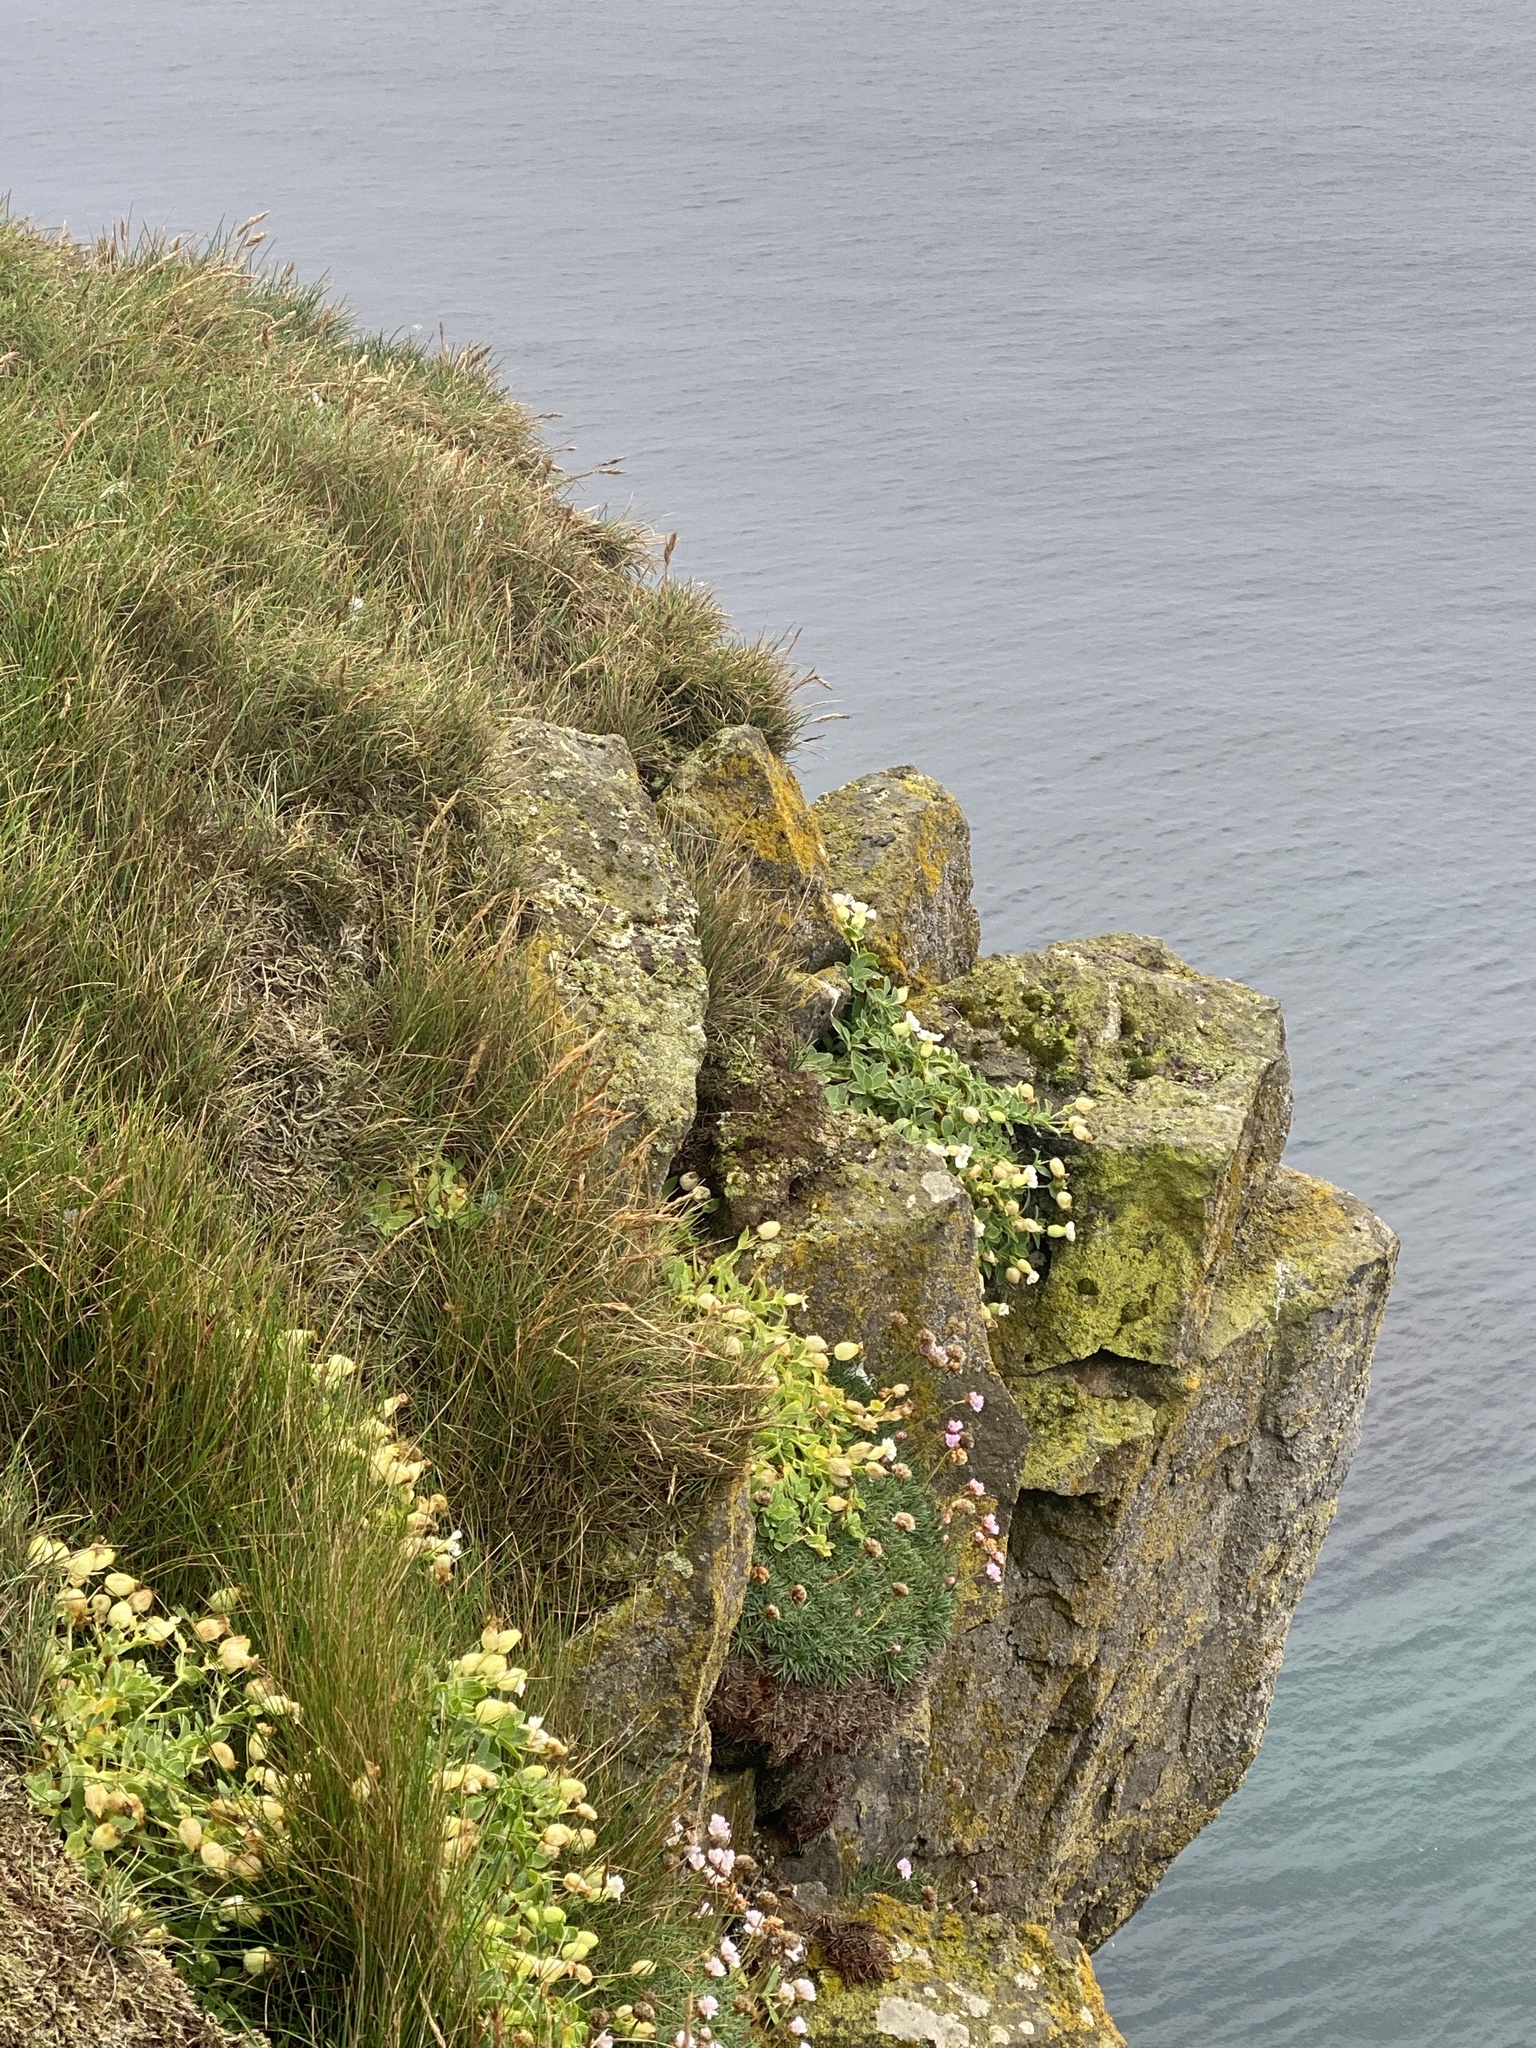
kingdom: Plantae
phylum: Tracheophyta
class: Magnoliopsida
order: Caryophyllales
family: Caryophyllaceae
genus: Silene
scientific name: Silene uniflora
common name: Sea campion
